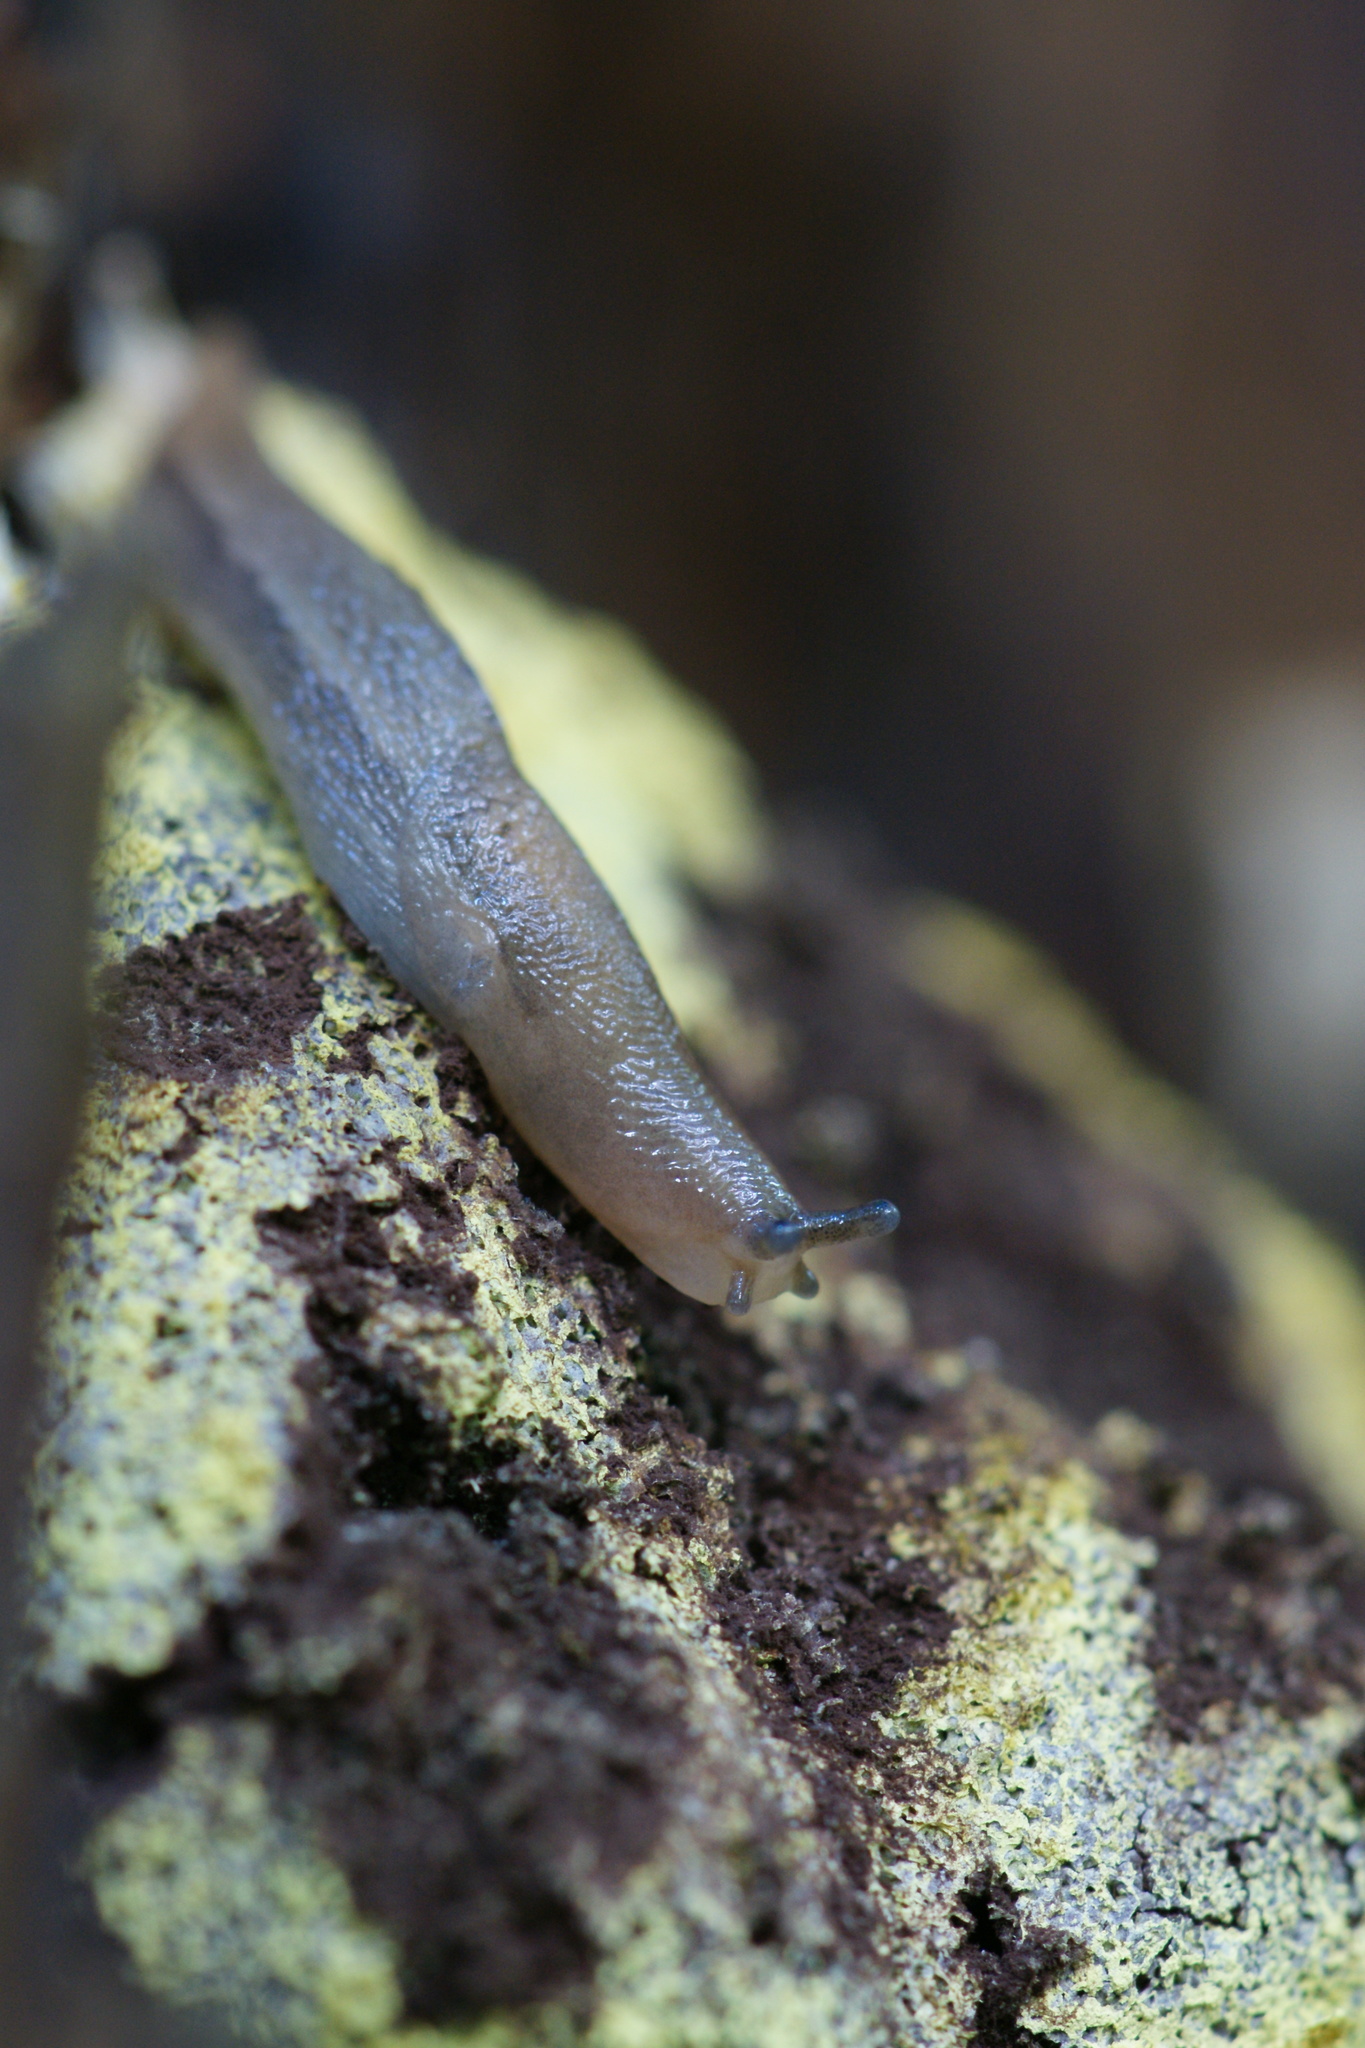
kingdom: Animalia
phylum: Mollusca
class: Gastropoda
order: Stylommatophora
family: Limacidae
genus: Lehmannia
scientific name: Lehmannia marginata
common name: Tree slug
